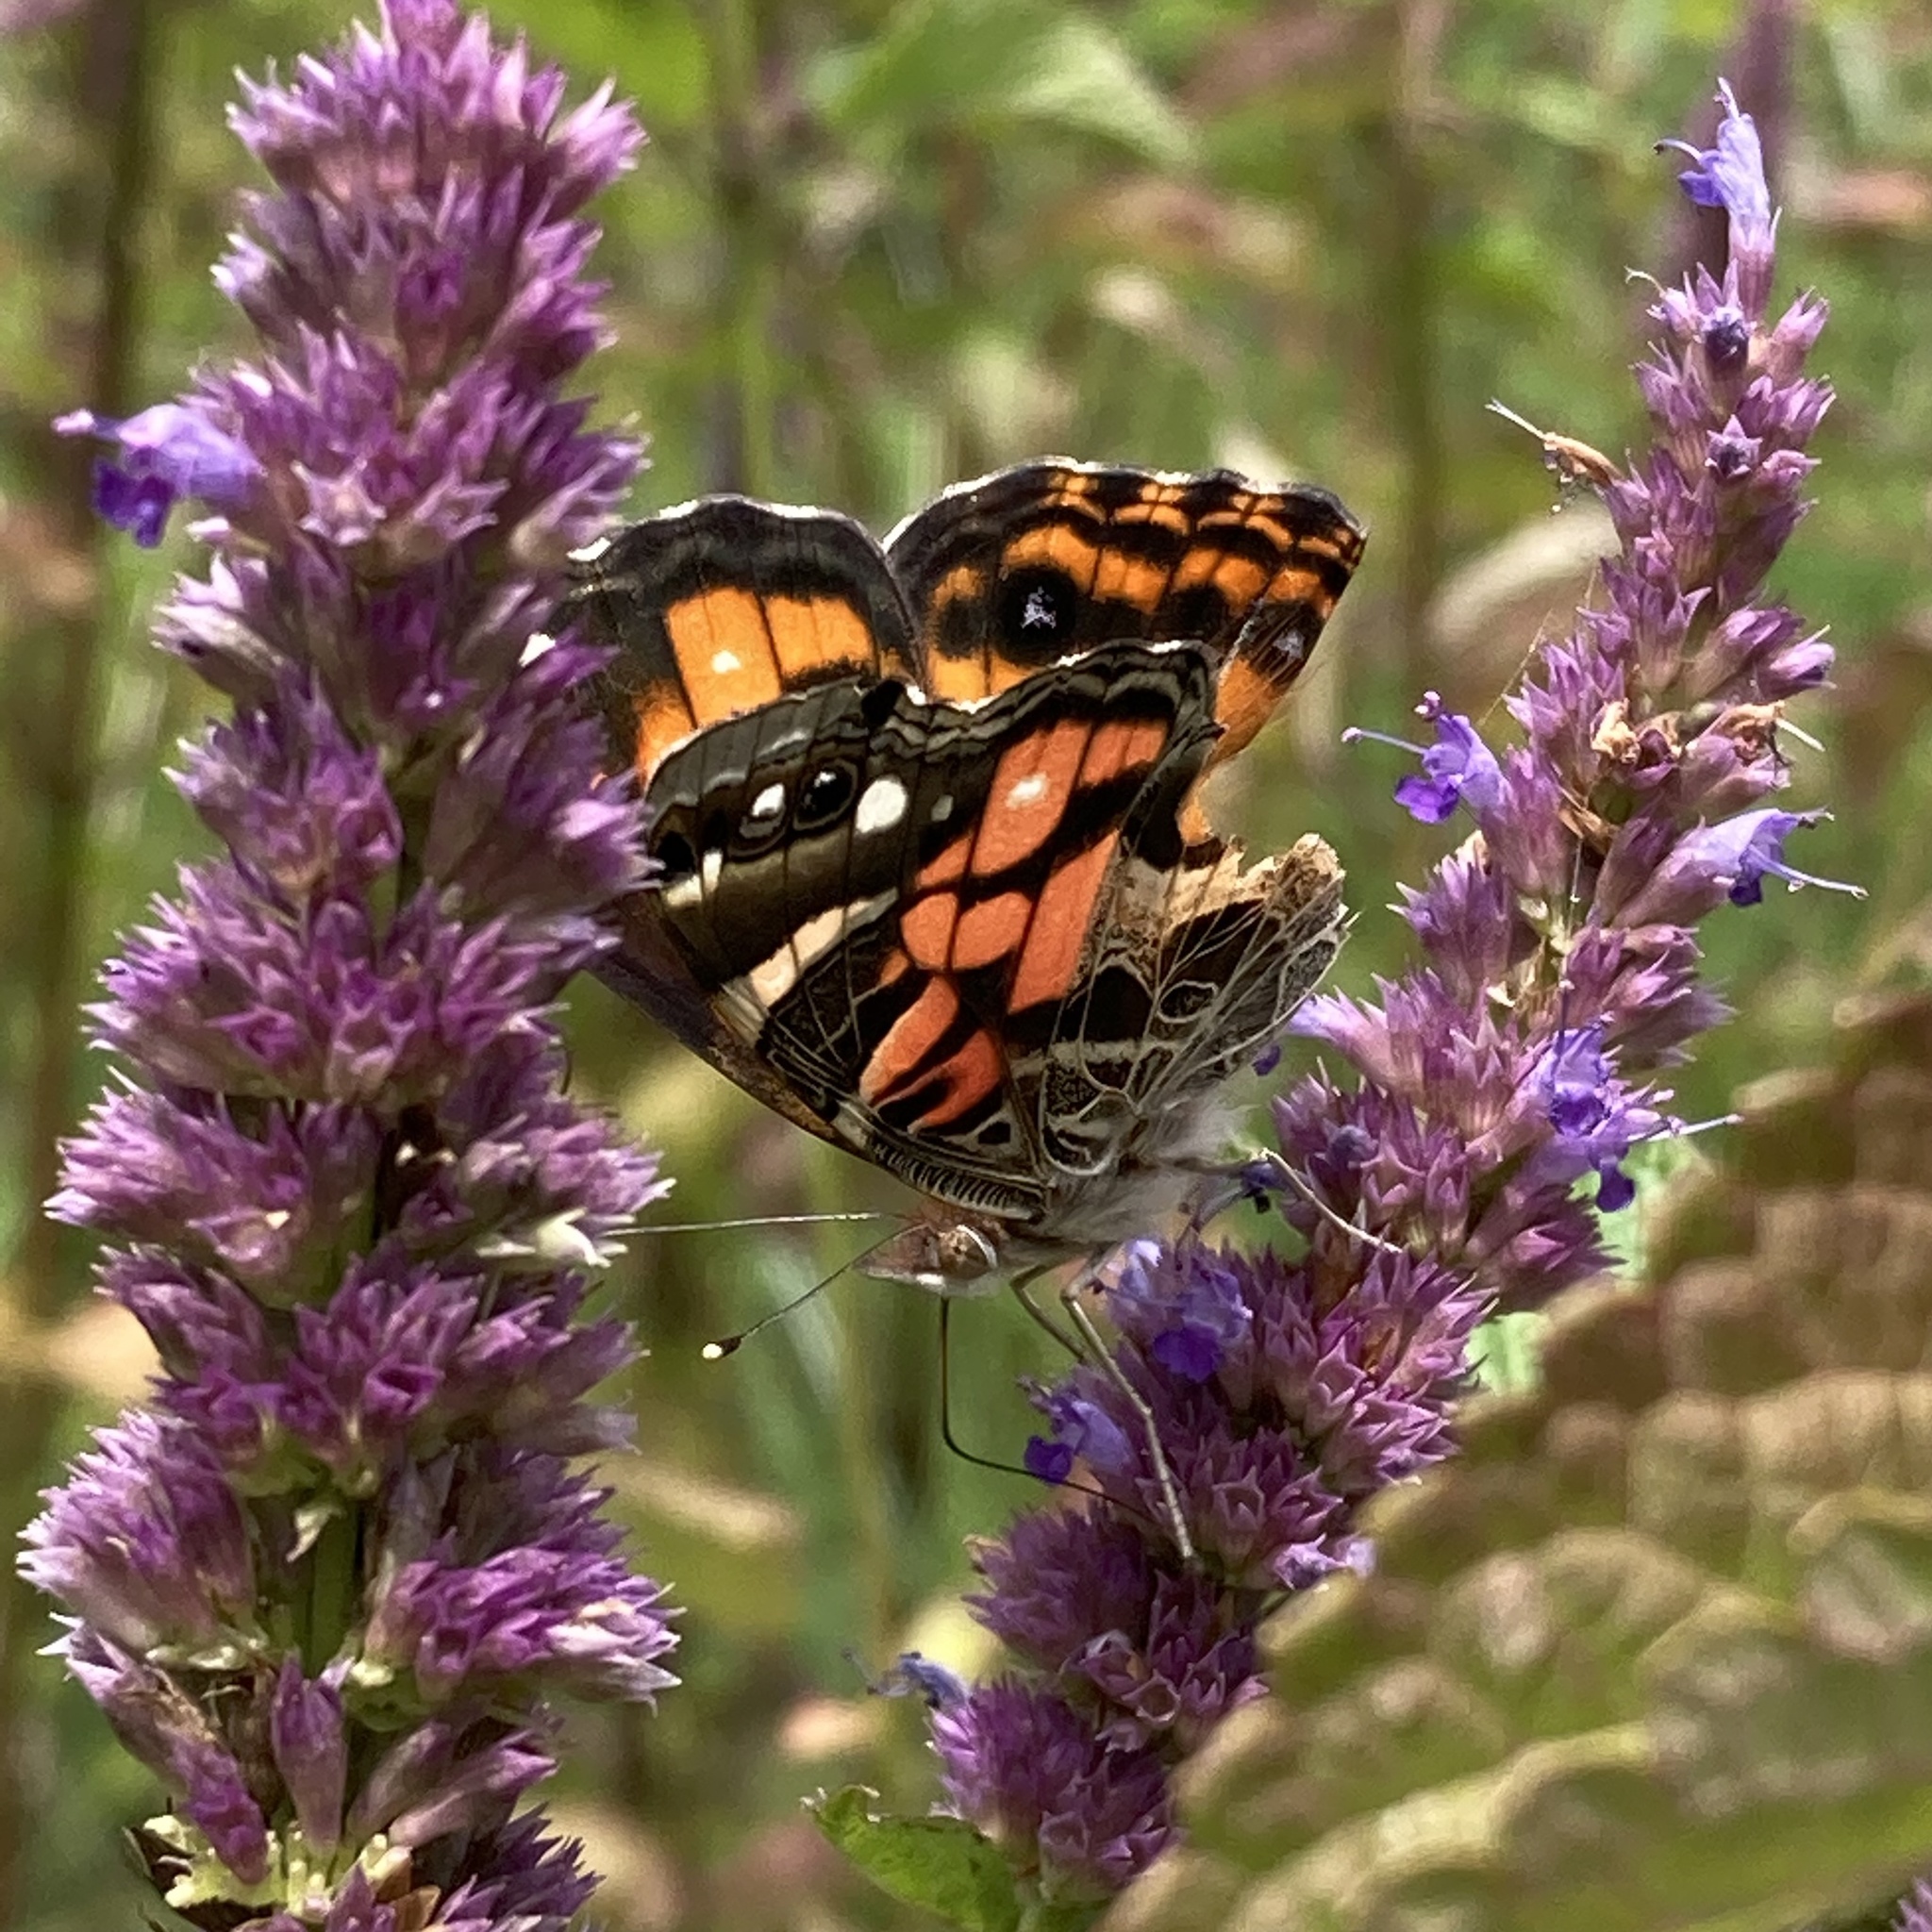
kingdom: Animalia
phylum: Arthropoda
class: Insecta
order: Lepidoptera
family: Nymphalidae
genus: Vanessa
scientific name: Vanessa virginiensis
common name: American lady
